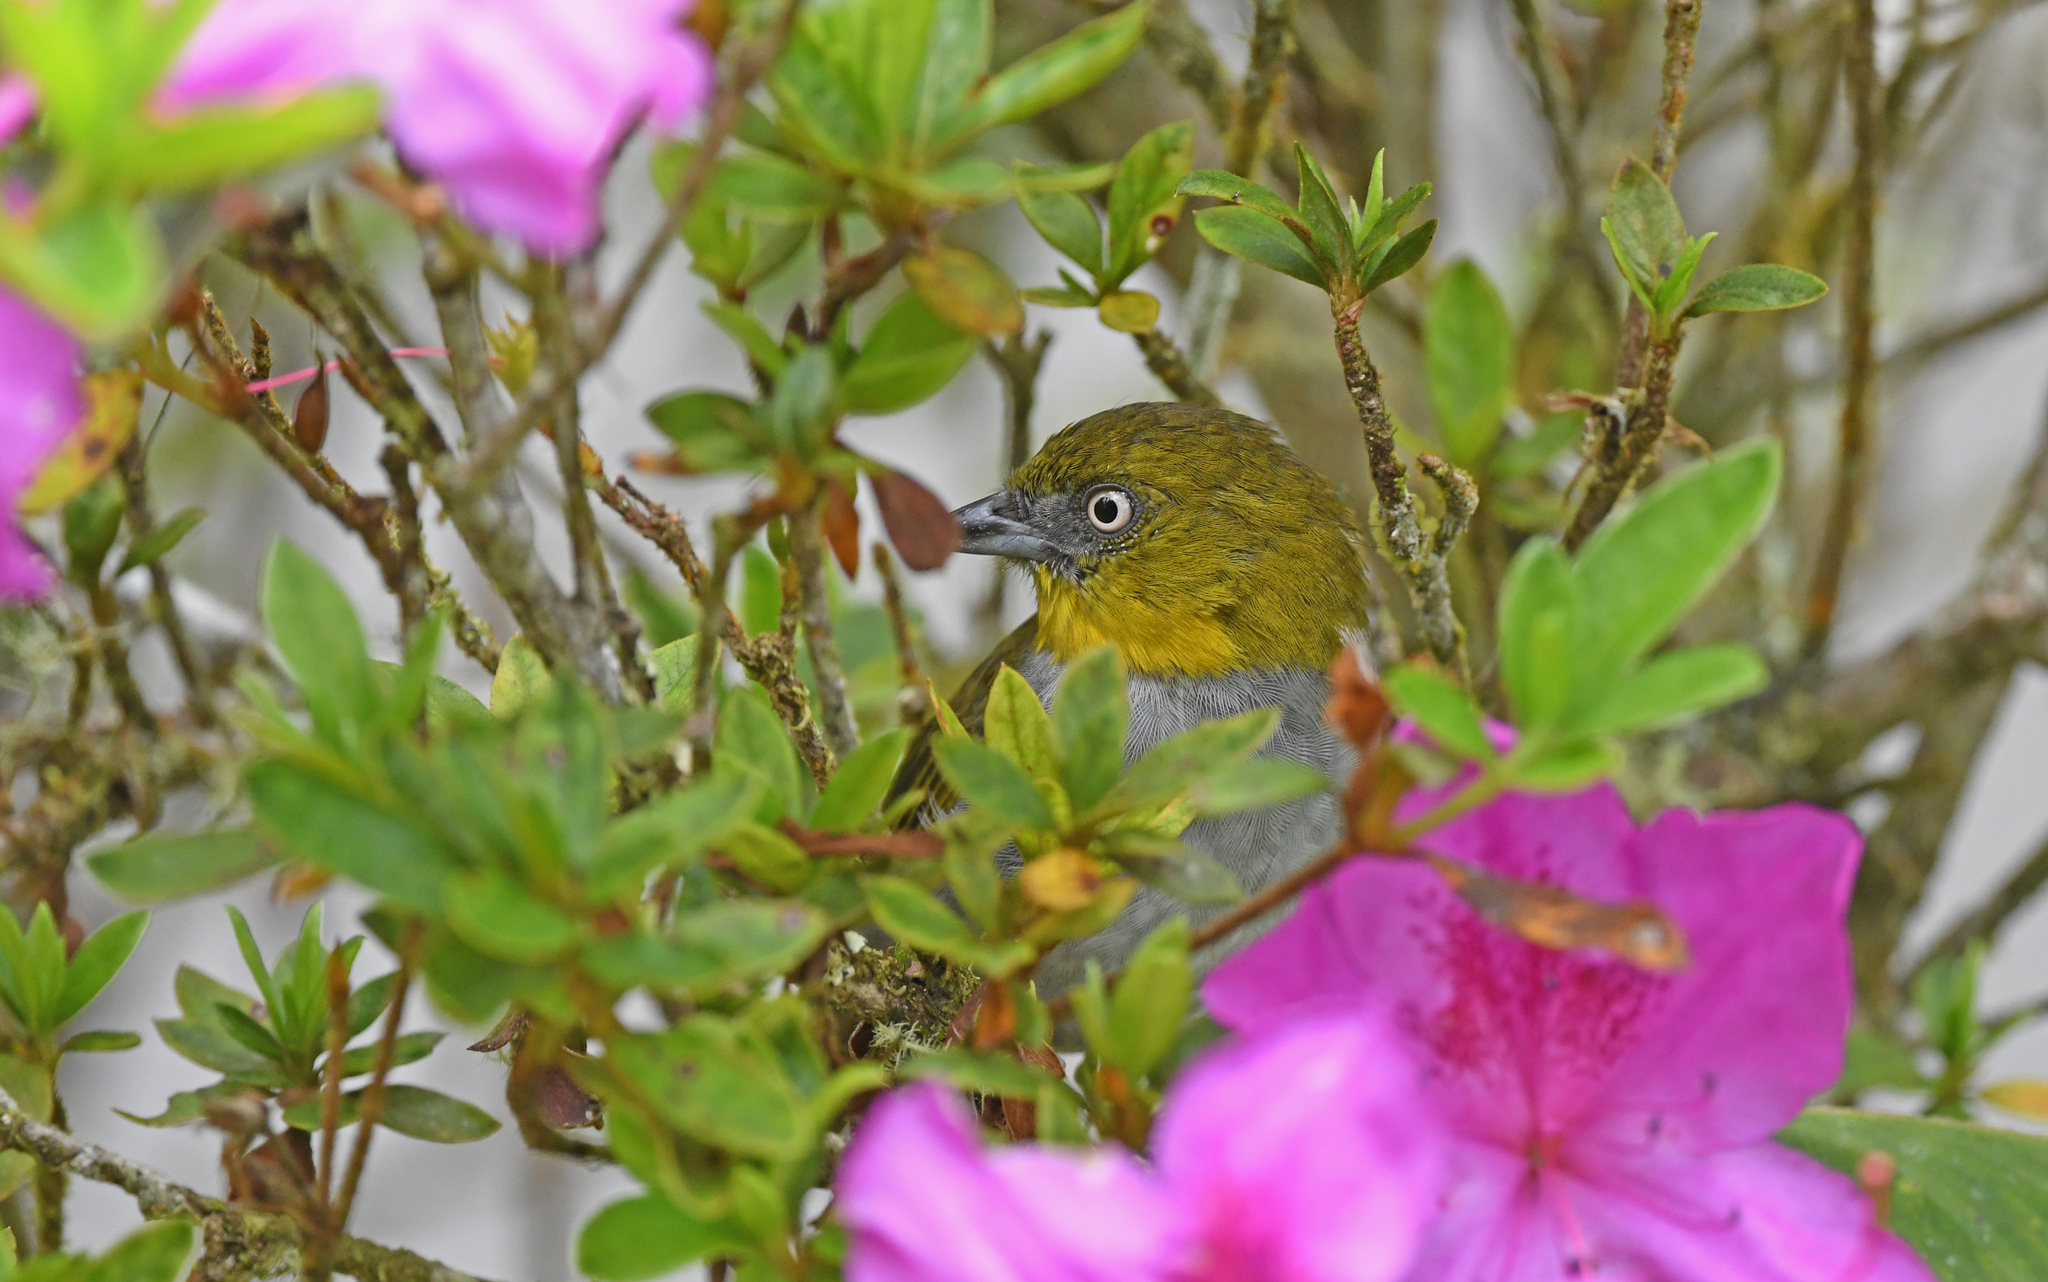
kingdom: Animalia
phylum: Chordata
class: Aves
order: Passeriformes
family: Passerellidae
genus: Chlorospingus
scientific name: Chlorospingus flavigularis
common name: Yellow-throated bush-tanager
